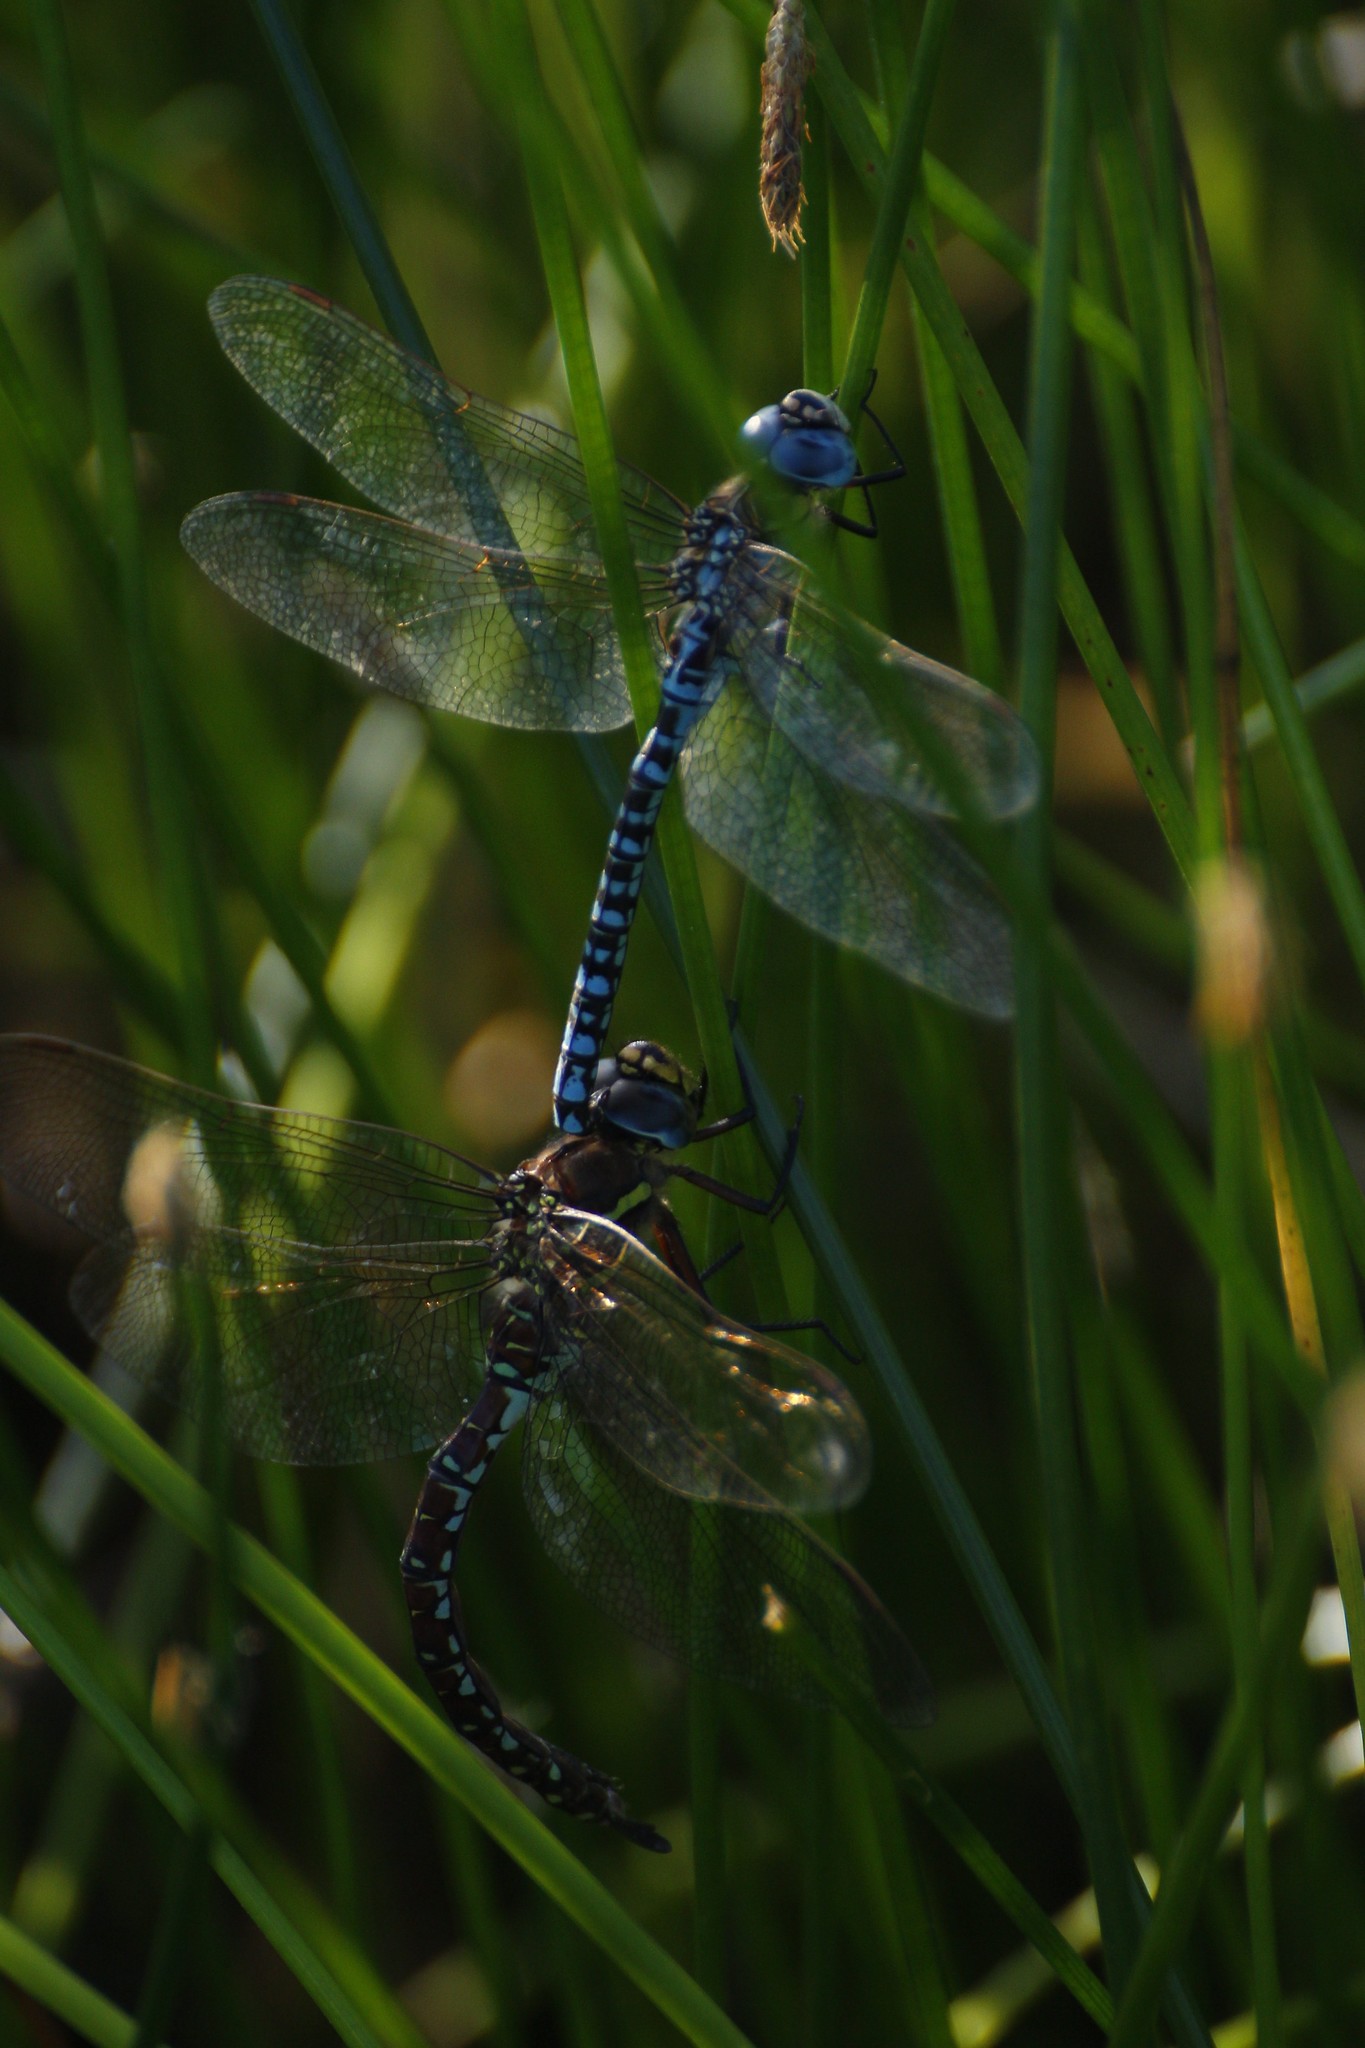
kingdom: Animalia
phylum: Arthropoda
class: Insecta
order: Odonata
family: Aeshnidae
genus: Aeshna
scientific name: Aeshna juncea
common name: Moorland hawker
